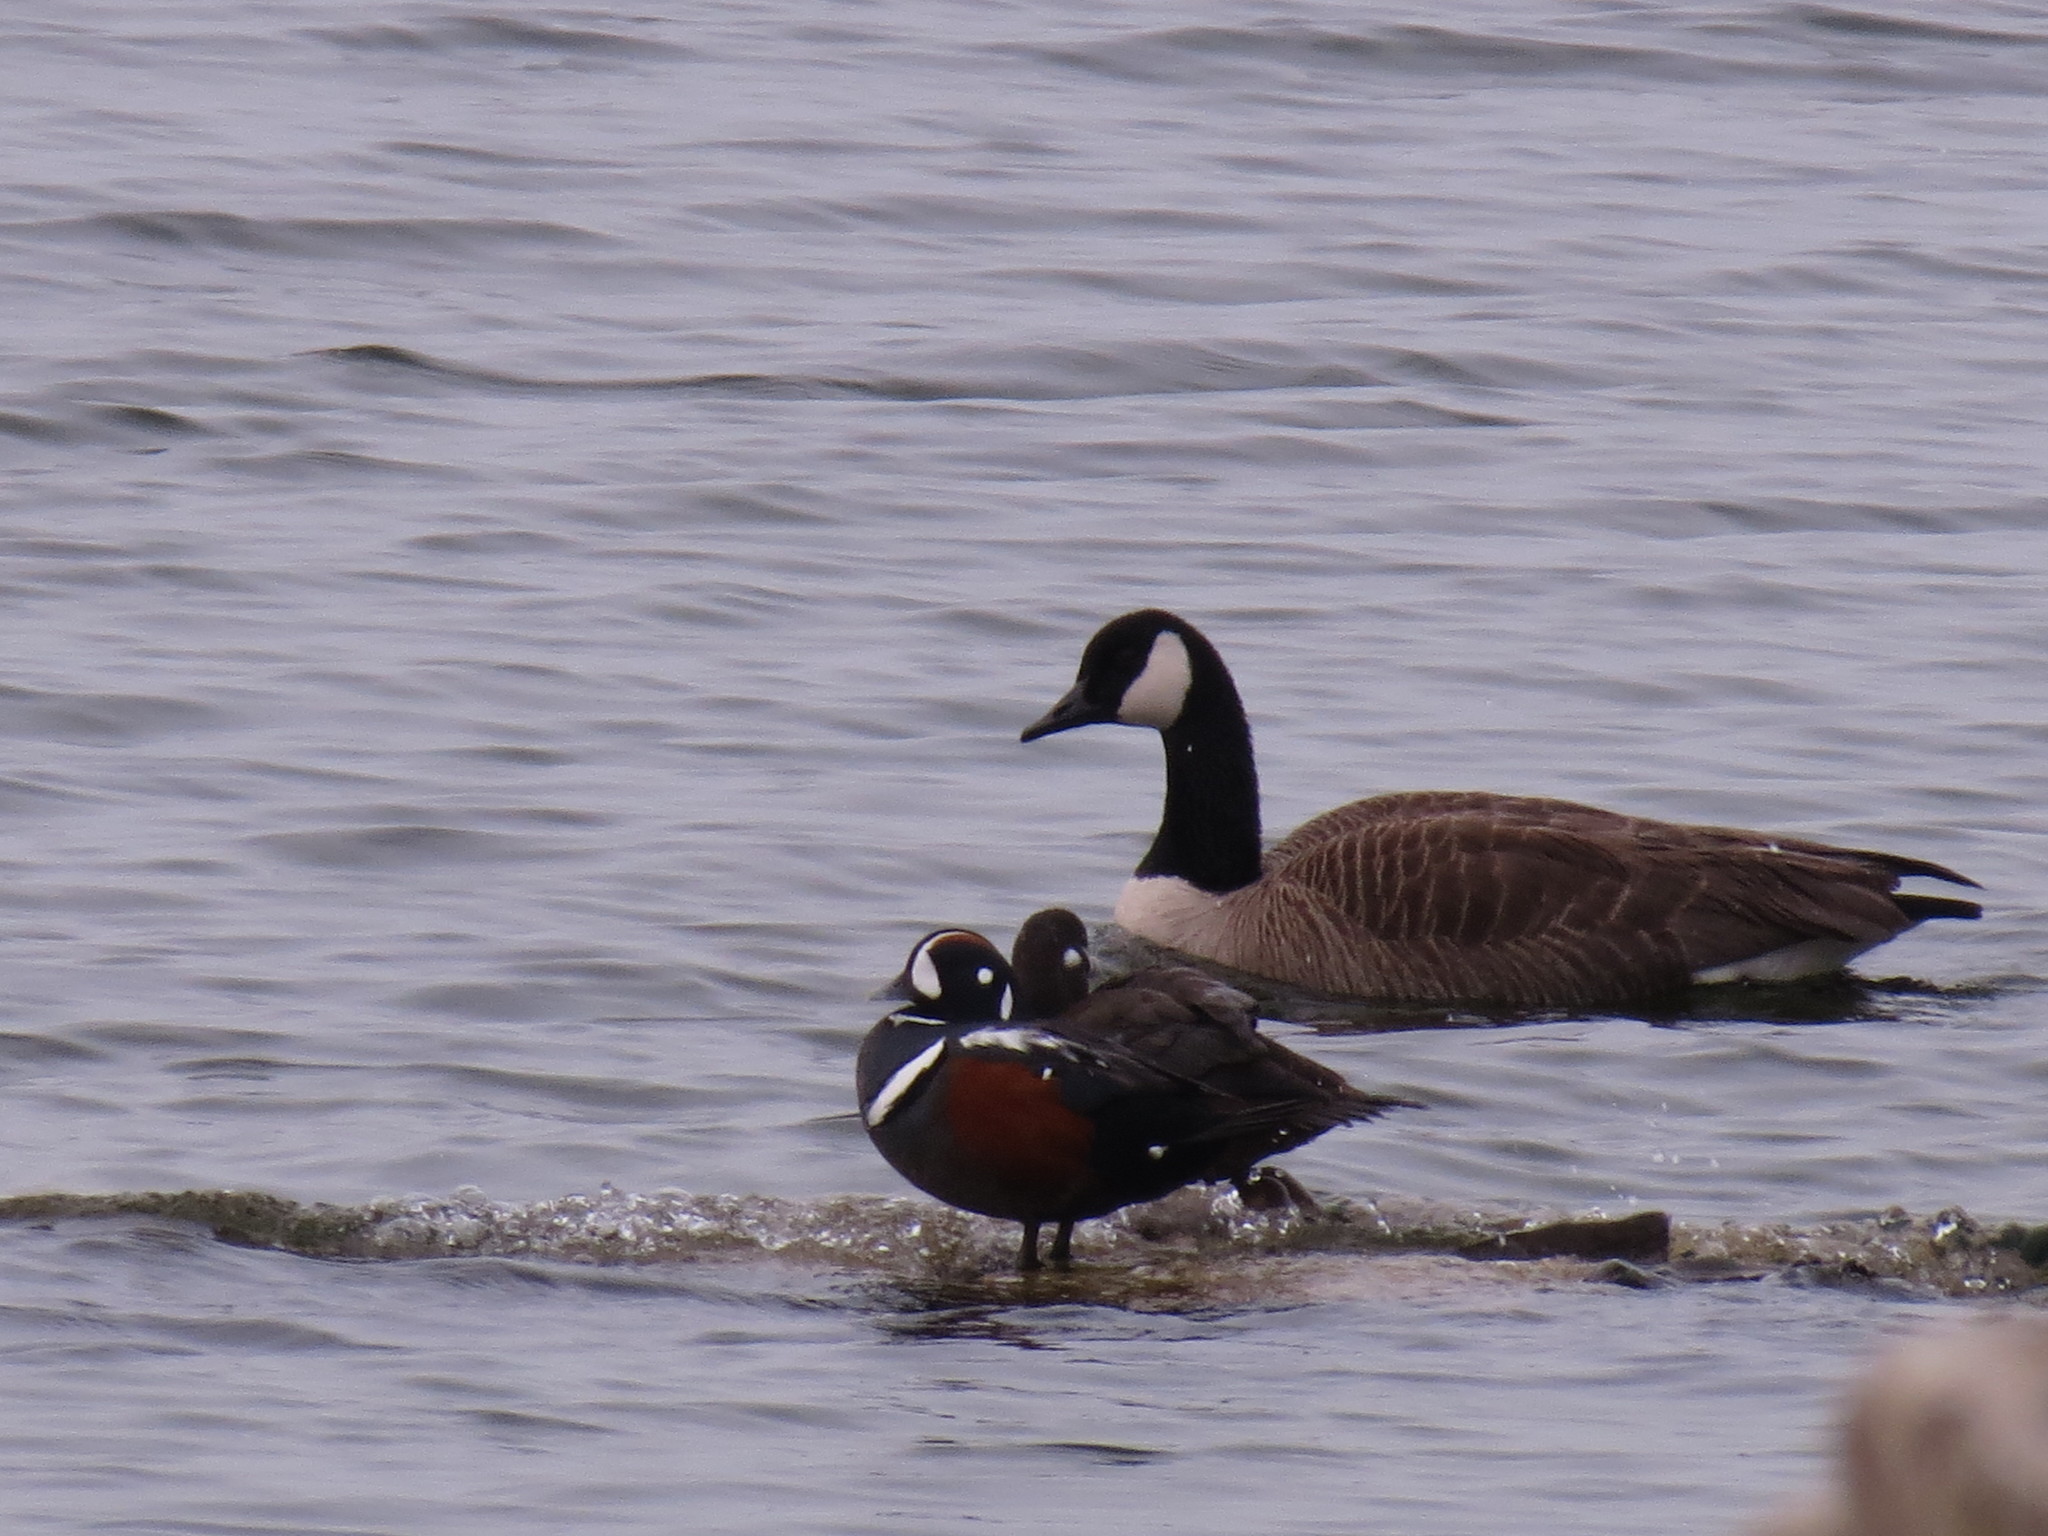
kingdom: Animalia
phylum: Chordata
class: Aves
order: Anseriformes
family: Anatidae
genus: Histrionicus
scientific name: Histrionicus histrionicus
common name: Harlequin duck
